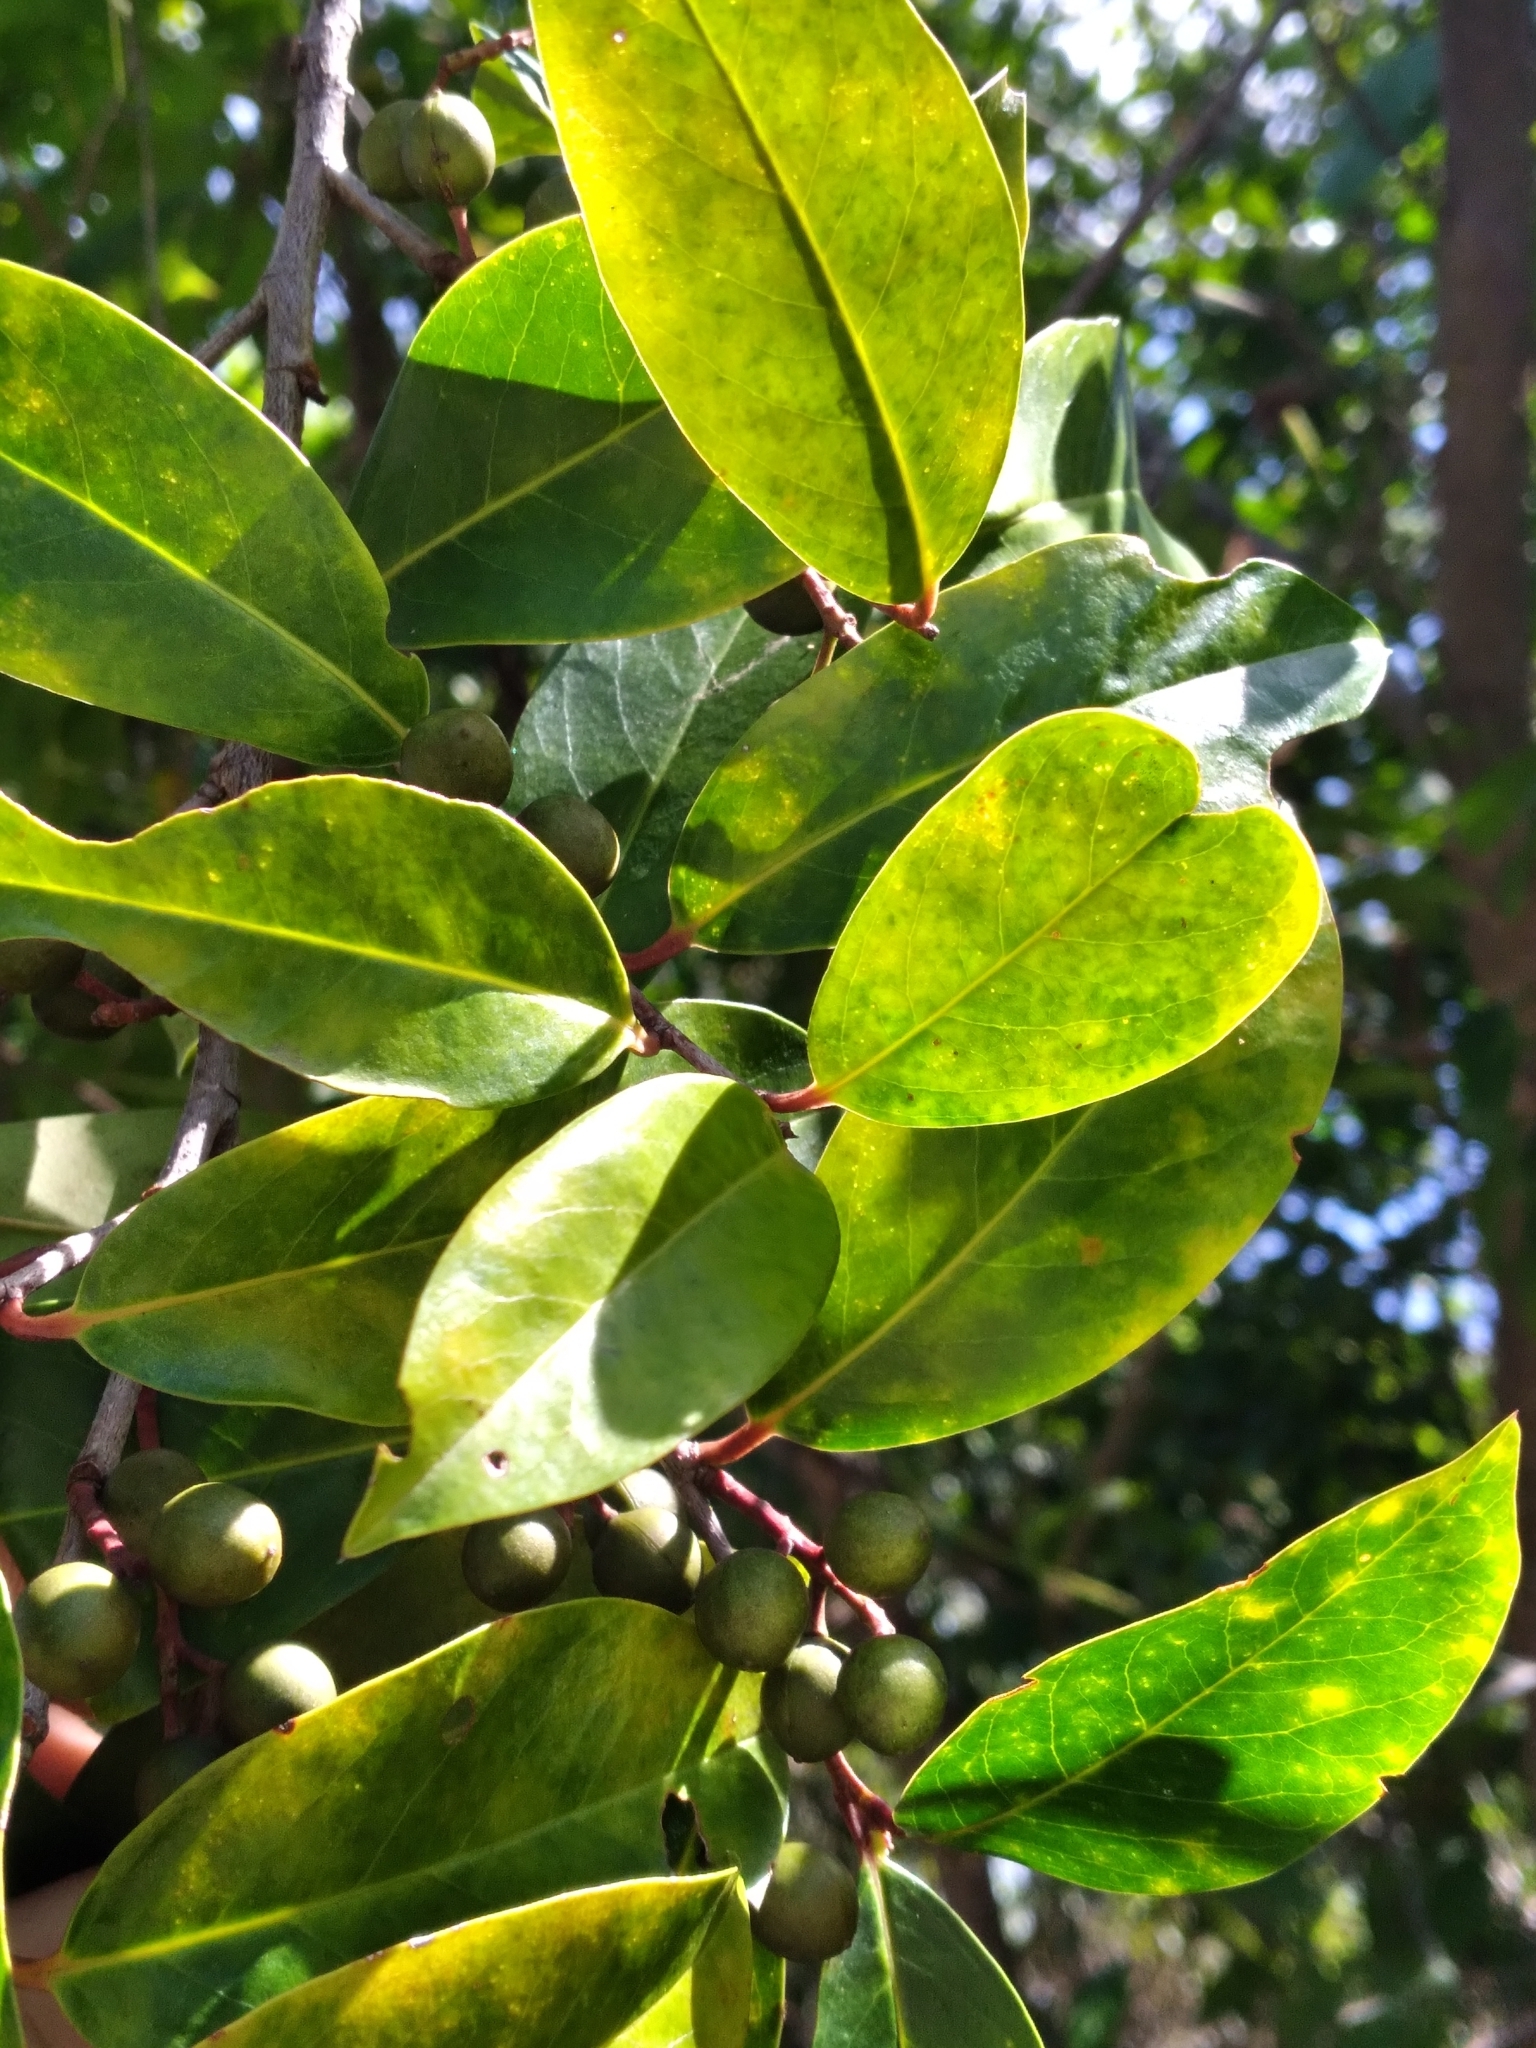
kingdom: Plantae
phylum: Tracheophyta
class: Magnoliopsida
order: Rosales
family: Rosaceae
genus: Prunus
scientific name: Prunus caroliniana
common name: Carolina laurel cherry
